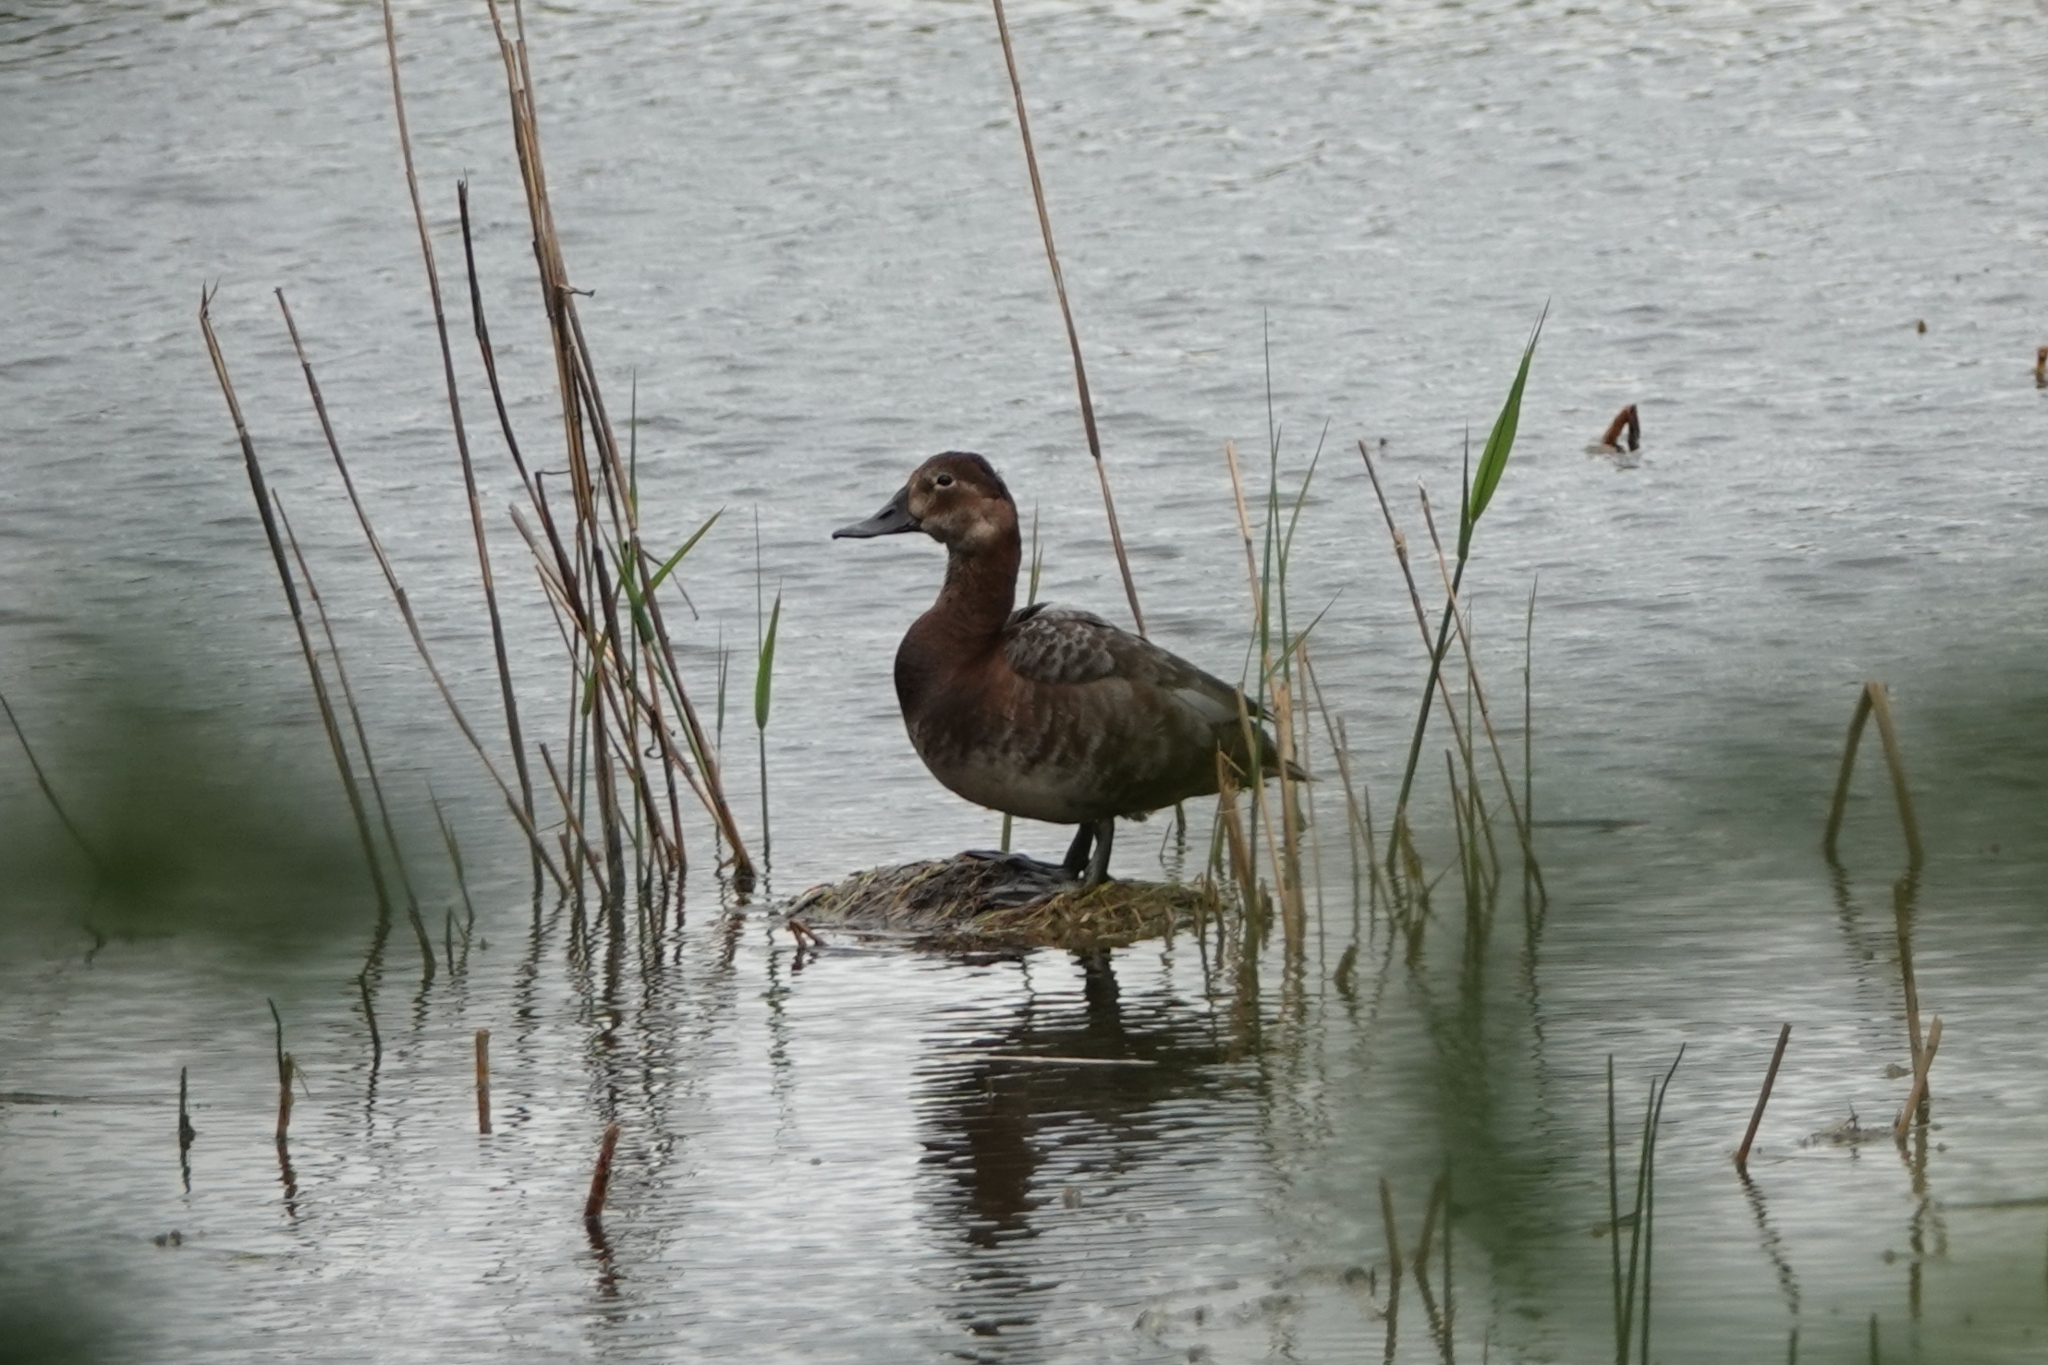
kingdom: Animalia
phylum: Chordata
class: Aves
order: Anseriformes
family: Anatidae
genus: Aythya
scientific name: Aythya ferina
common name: Common pochard
